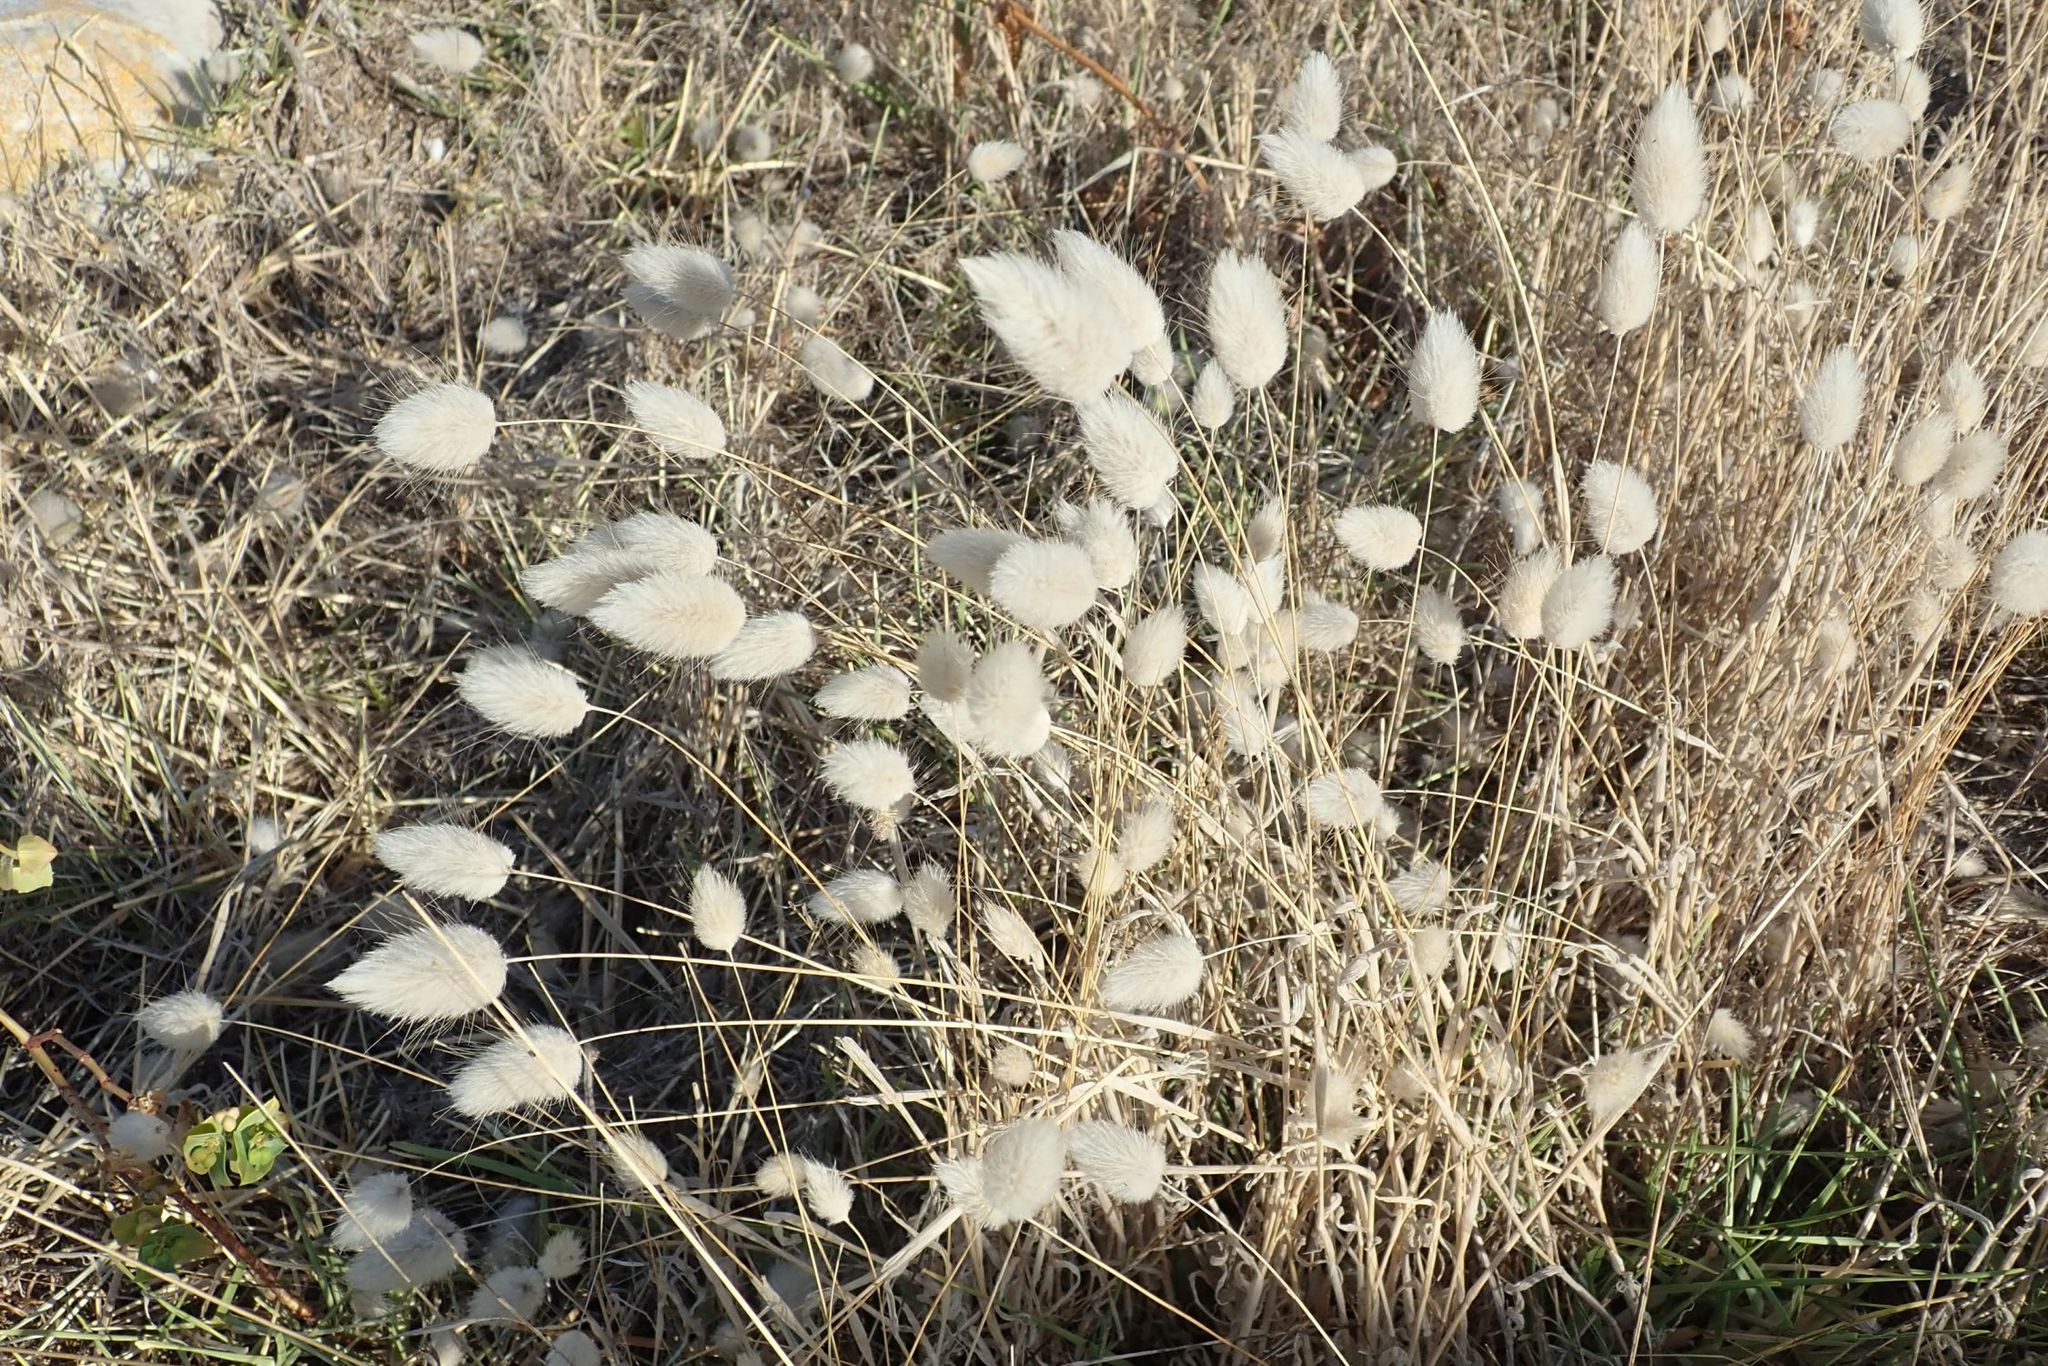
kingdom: Plantae
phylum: Tracheophyta
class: Liliopsida
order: Poales
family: Poaceae
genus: Lagurus
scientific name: Lagurus ovatus
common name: Hare's-tail
